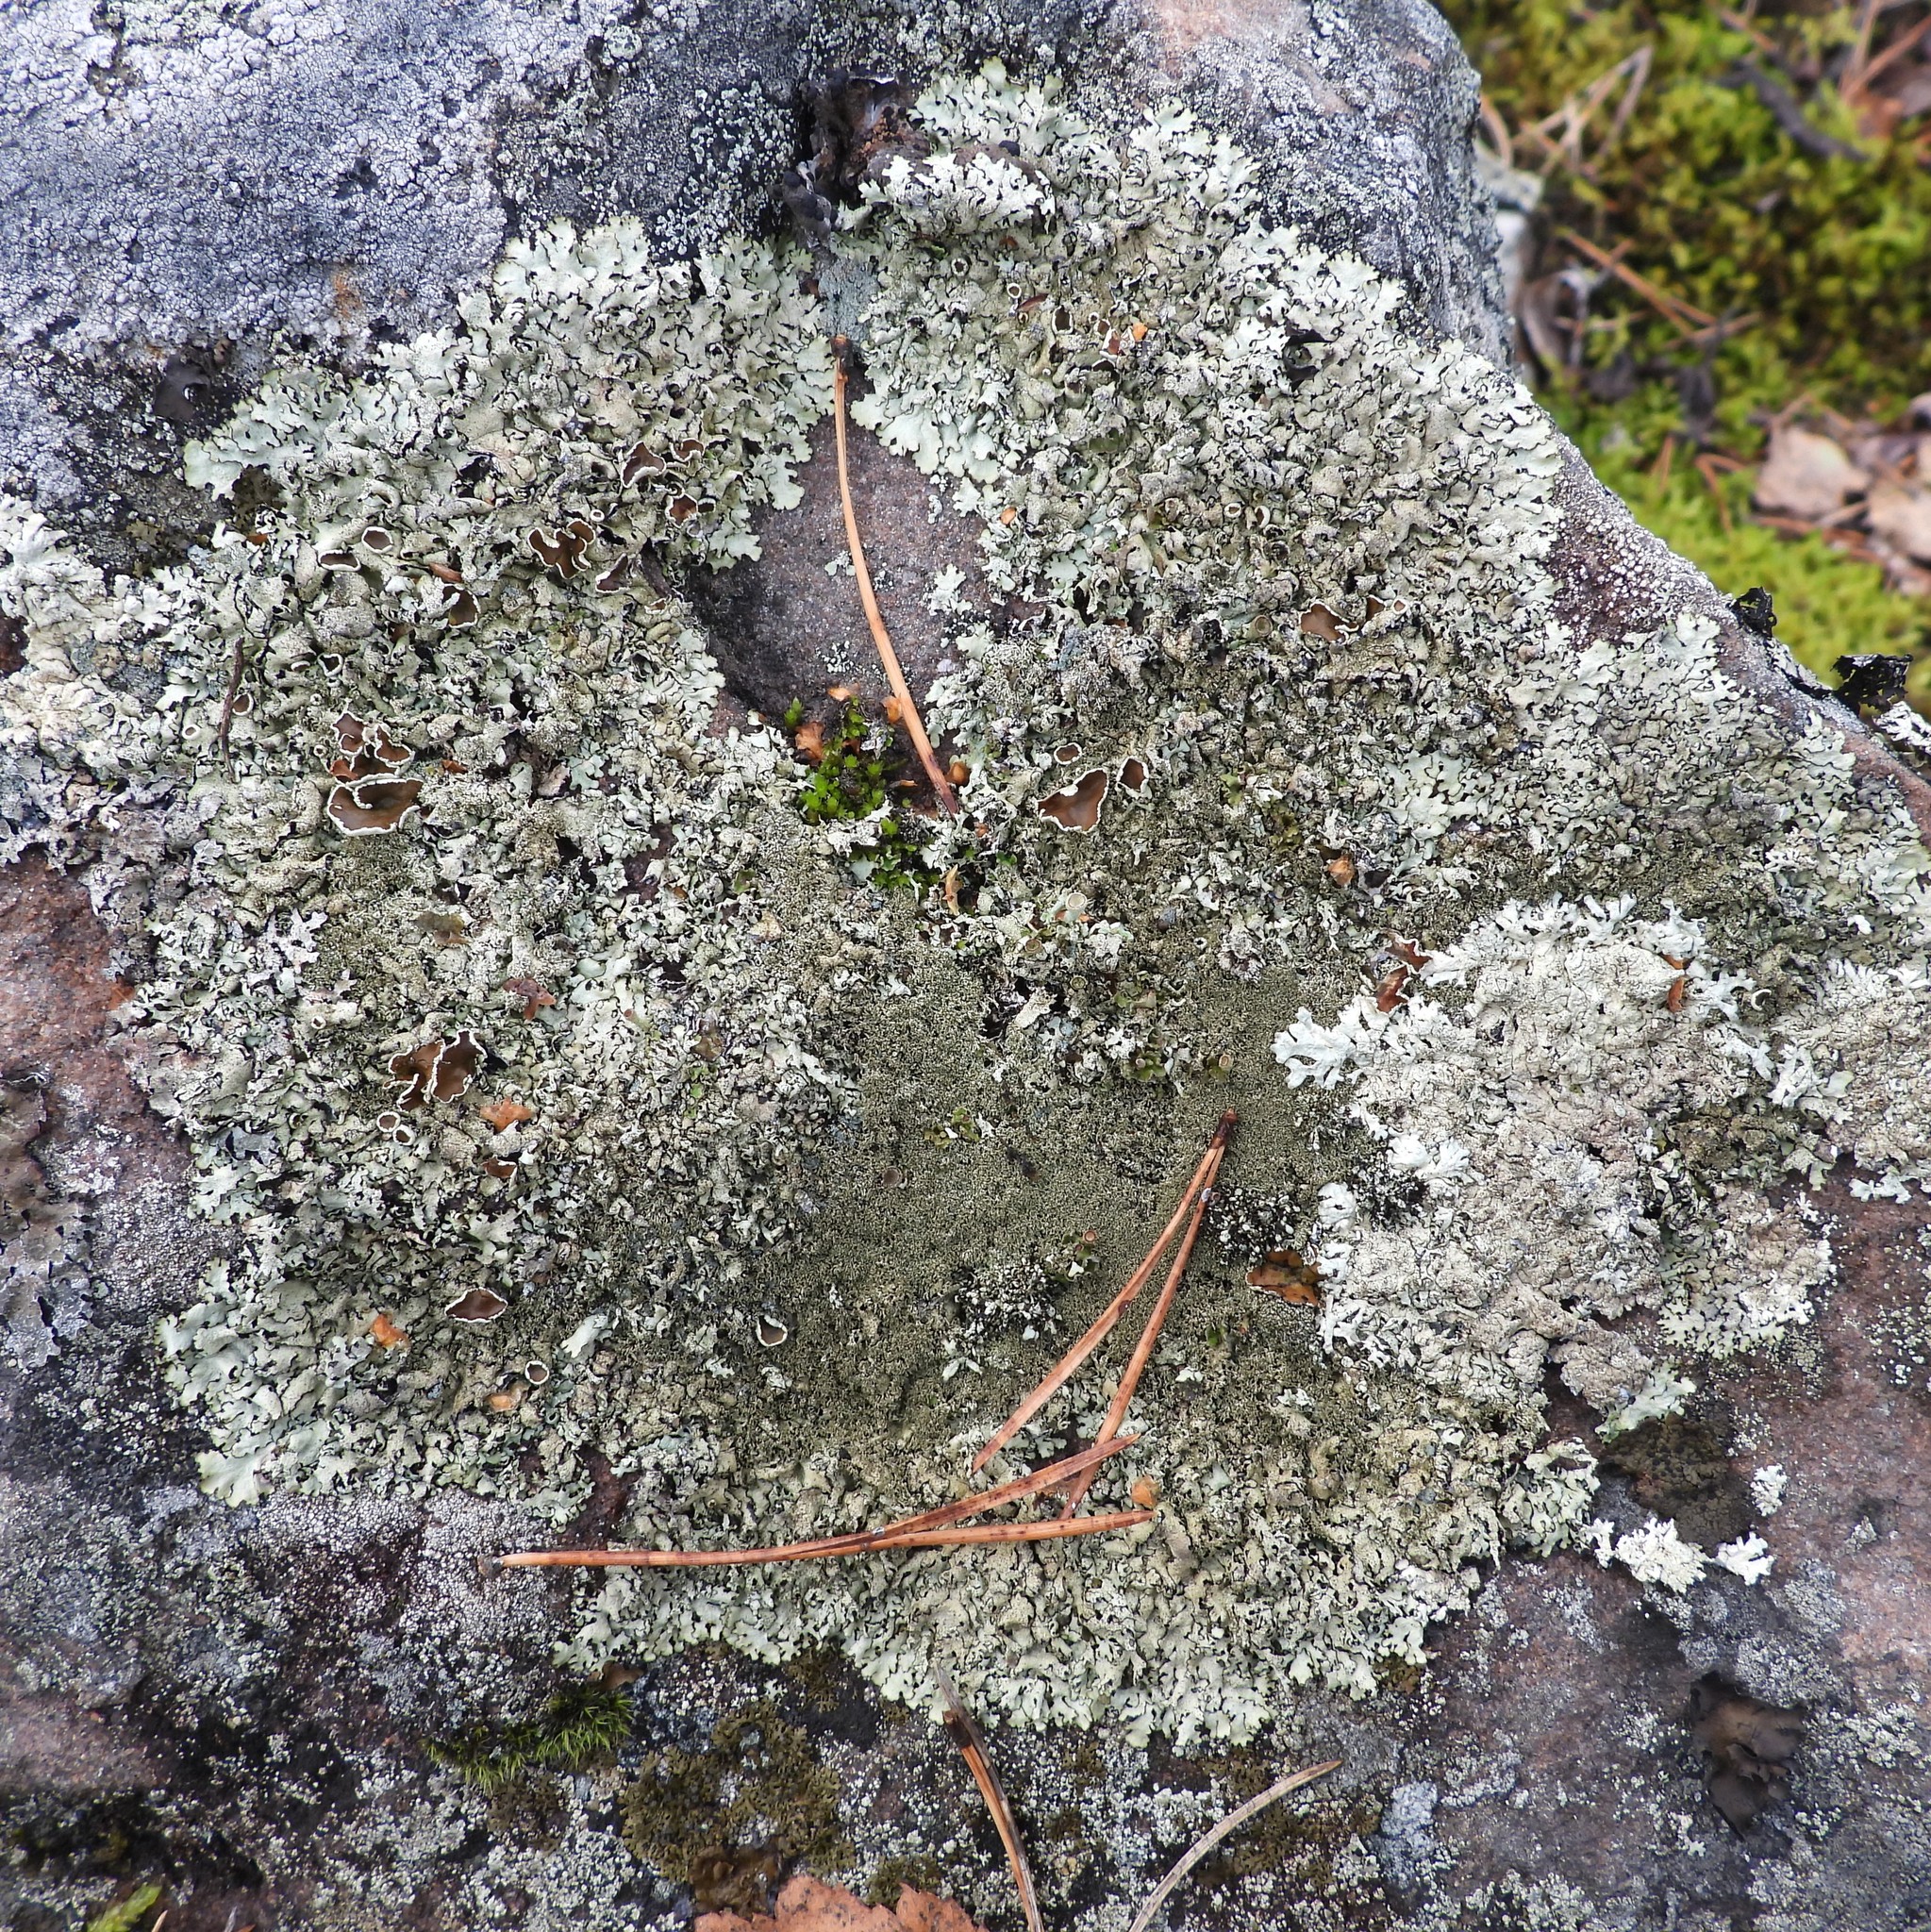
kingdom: Fungi
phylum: Ascomycota
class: Lecanoromycetes
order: Lecanorales
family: Parmeliaceae
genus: Xanthoparmelia
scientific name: Xanthoparmelia conspersa
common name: Peppered rock shield
